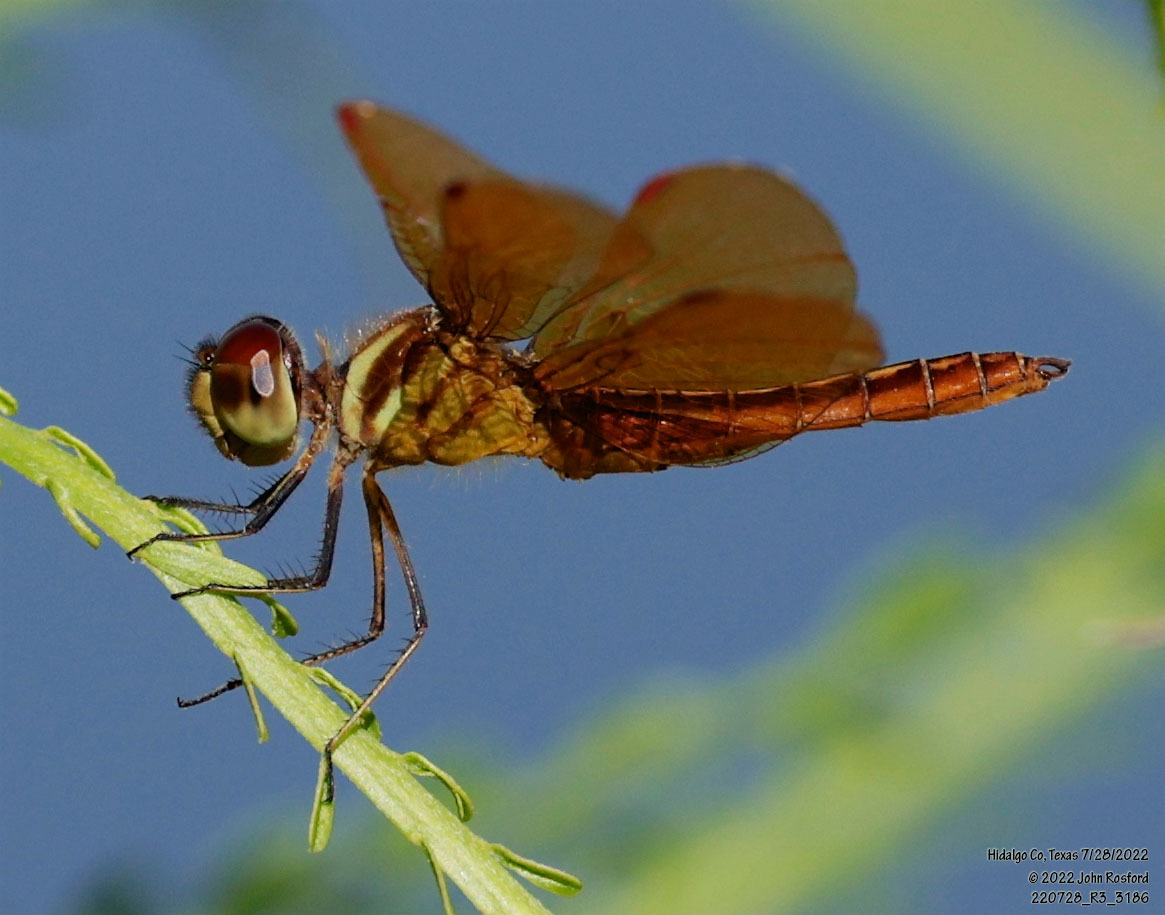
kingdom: Animalia
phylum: Arthropoda
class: Insecta
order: Odonata
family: Libellulidae
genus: Perithemis
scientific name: Perithemis domitia
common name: Slough amberwing
